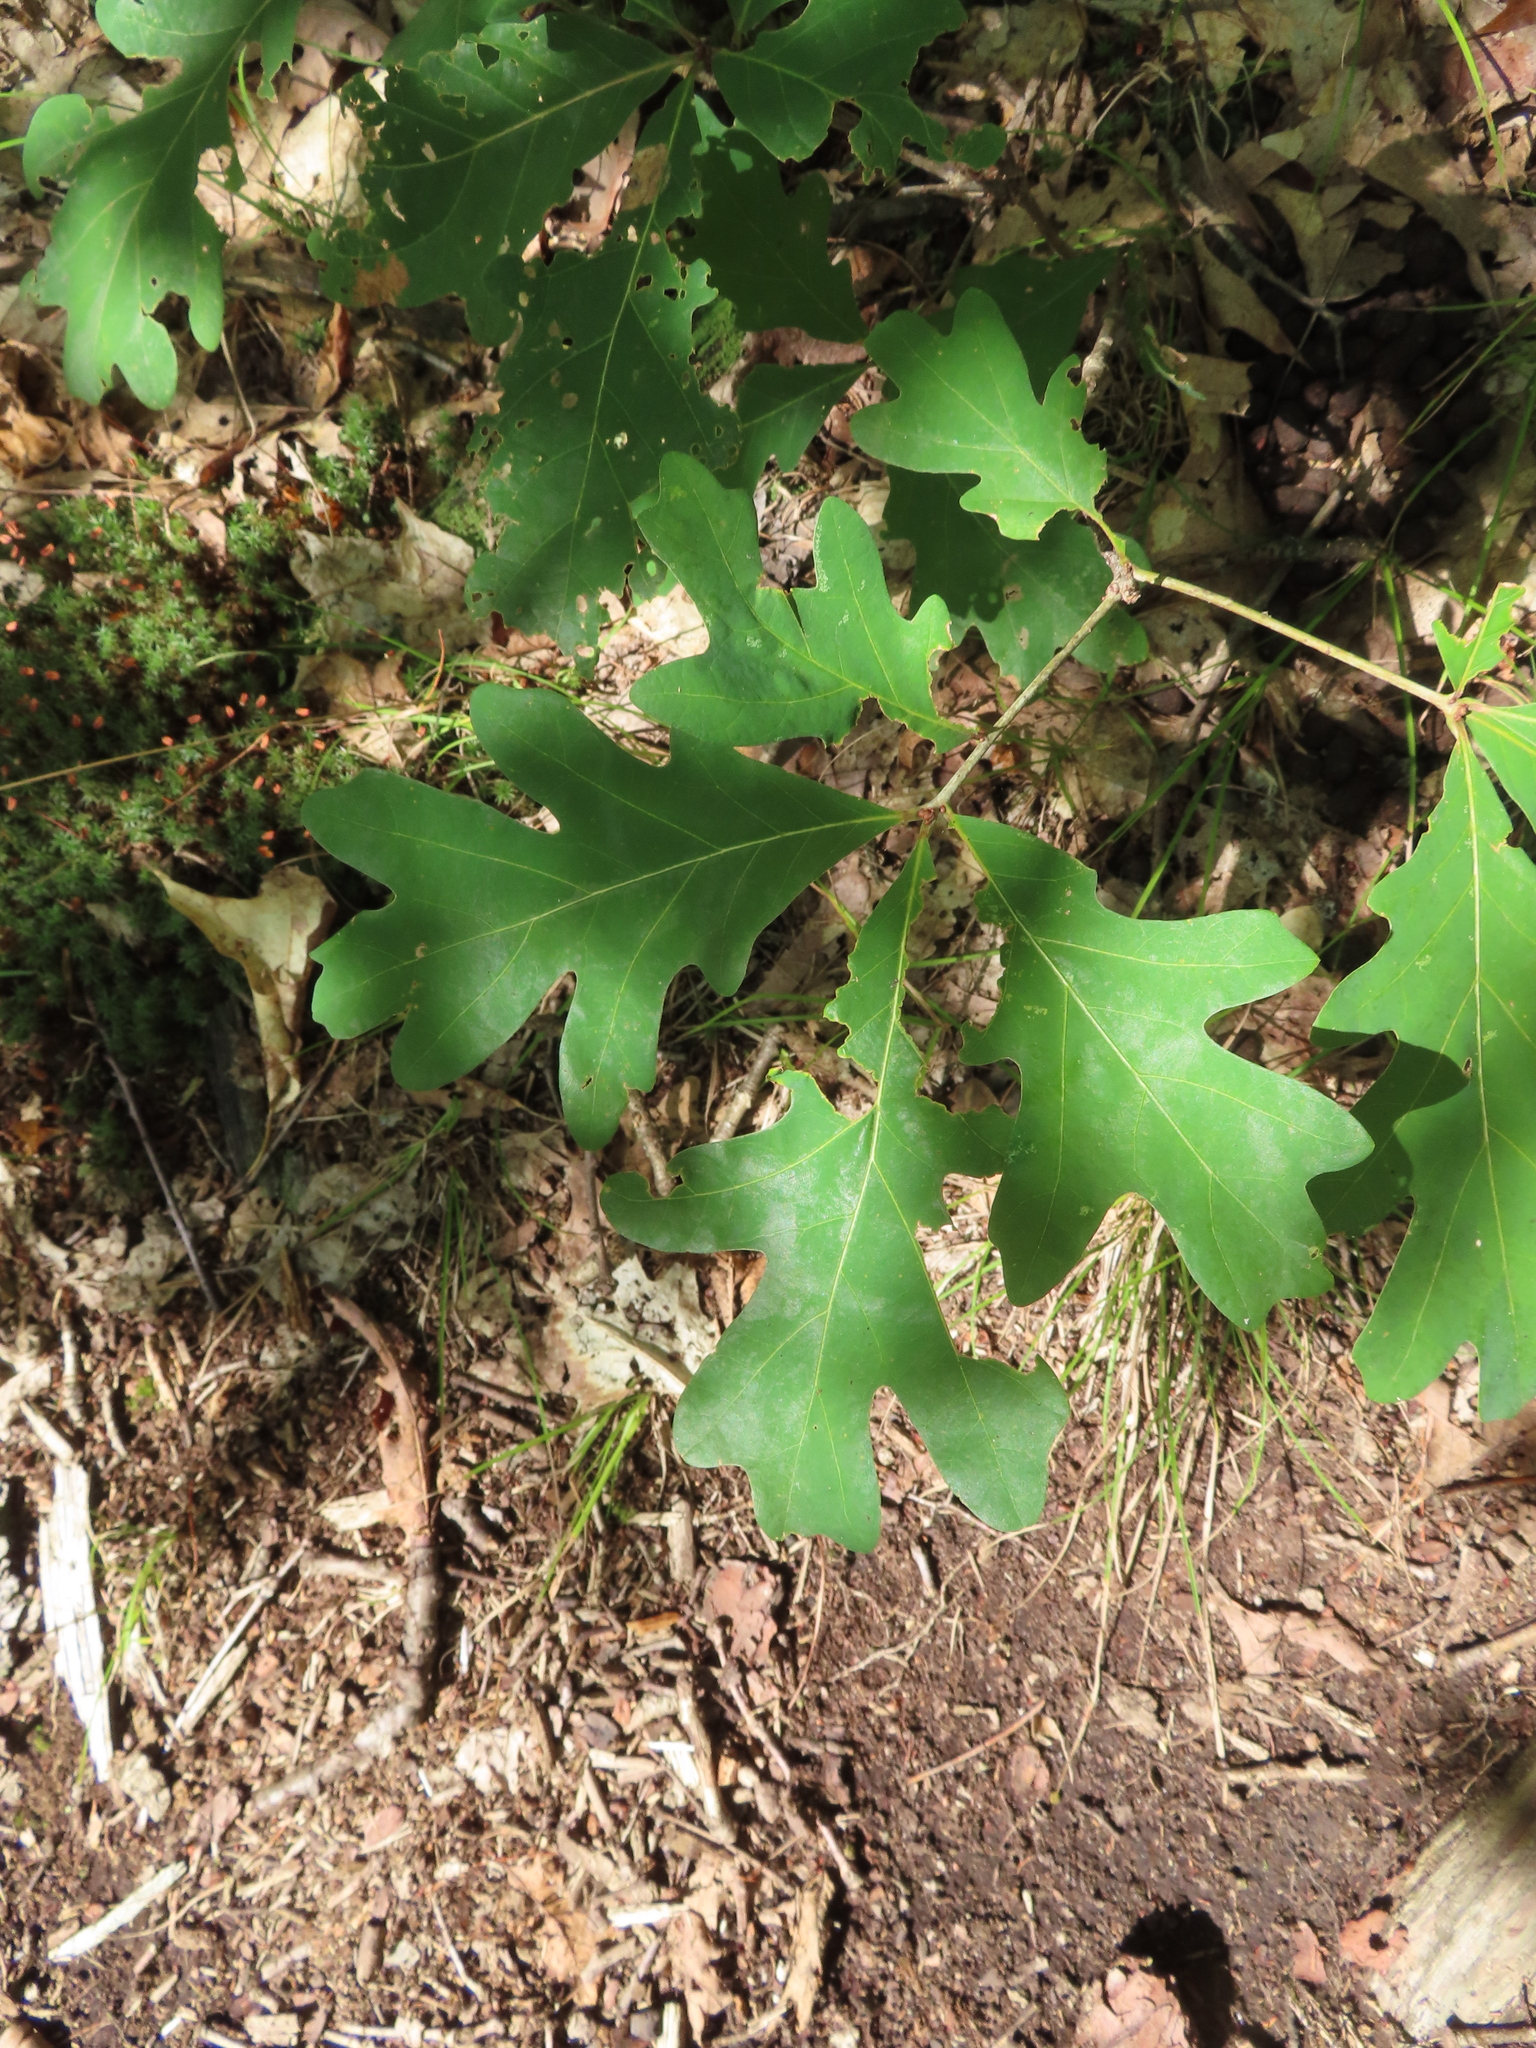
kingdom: Plantae
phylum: Tracheophyta
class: Magnoliopsida
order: Fagales
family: Fagaceae
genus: Quercus
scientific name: Quercus alba
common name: White oak
